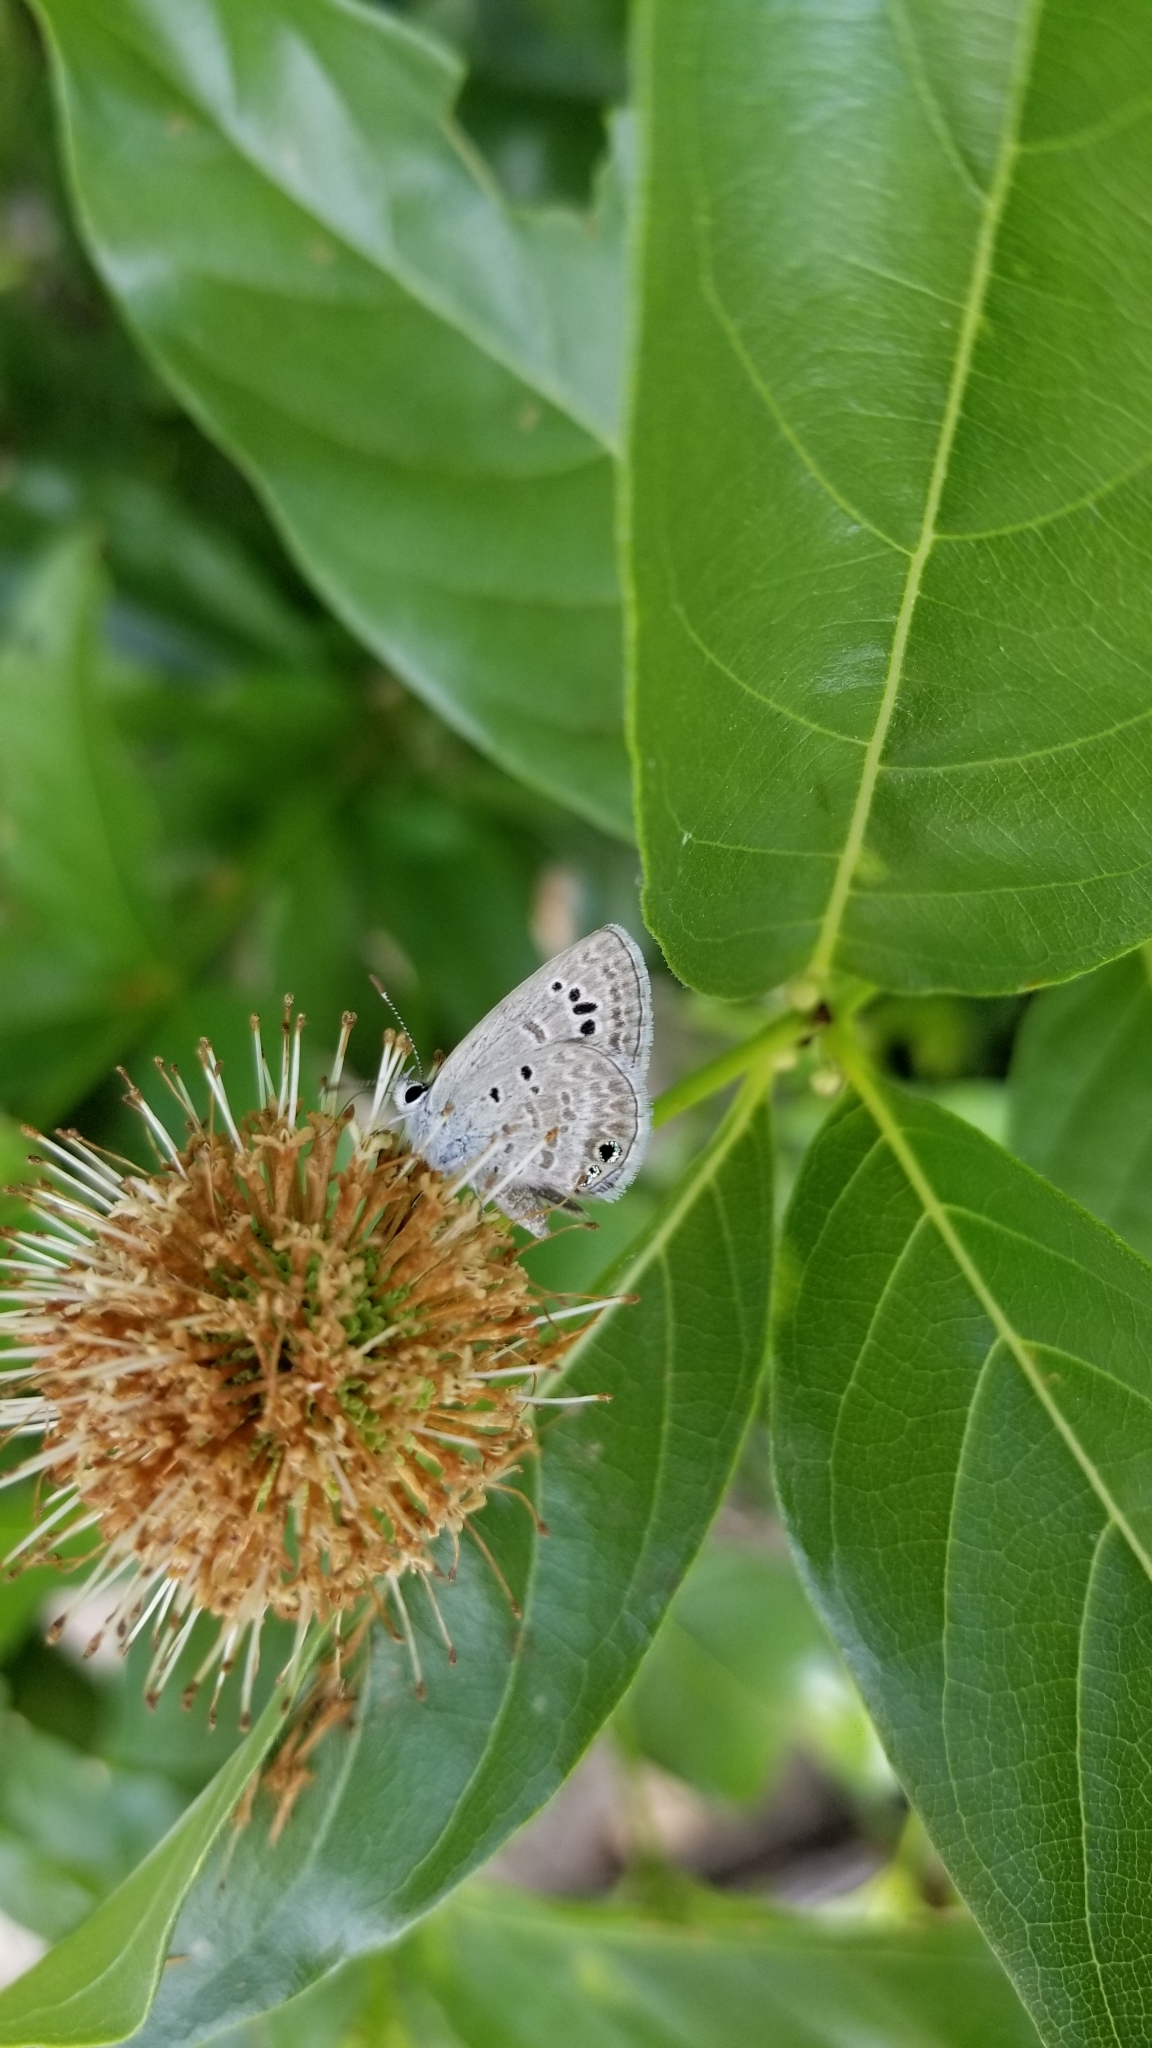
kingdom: Animalia
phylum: Arthropoda
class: Insecta
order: Lepidoptera
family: Lycaenidae
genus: Echinargus
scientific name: Echinargus isola
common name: Reakirt's blue
